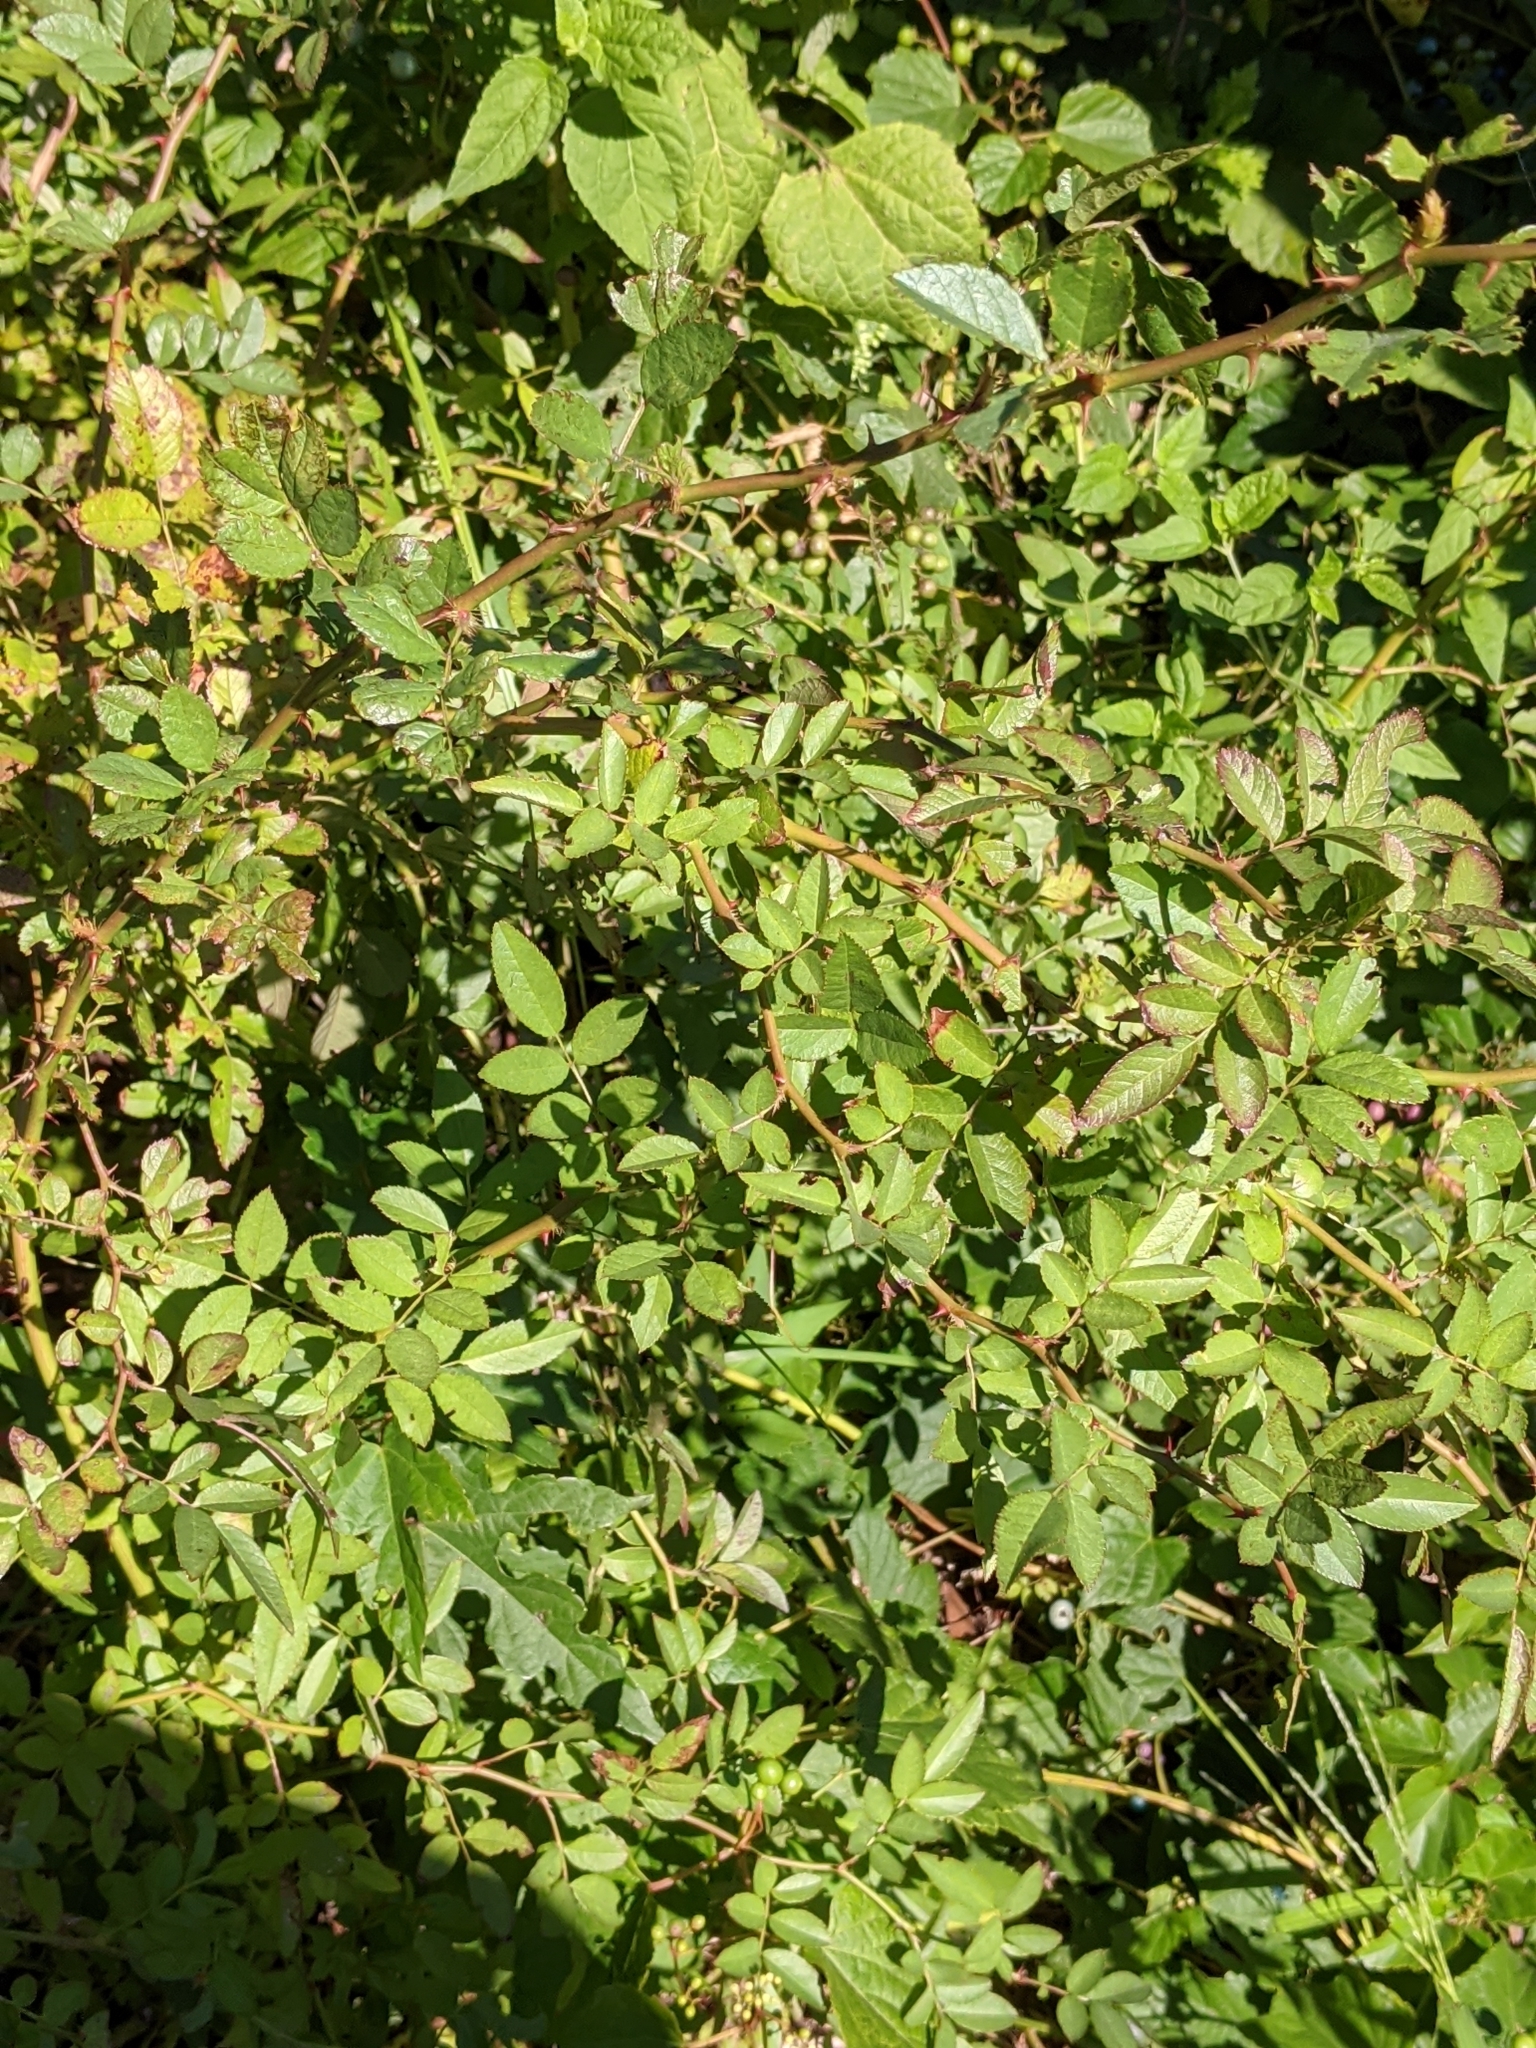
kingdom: Plantae
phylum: Tracheophyta
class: Magnoliopsida
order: Rosales
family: Rosaceae
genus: Rosa
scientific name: Rosa multiflora
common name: Multiflora rose
